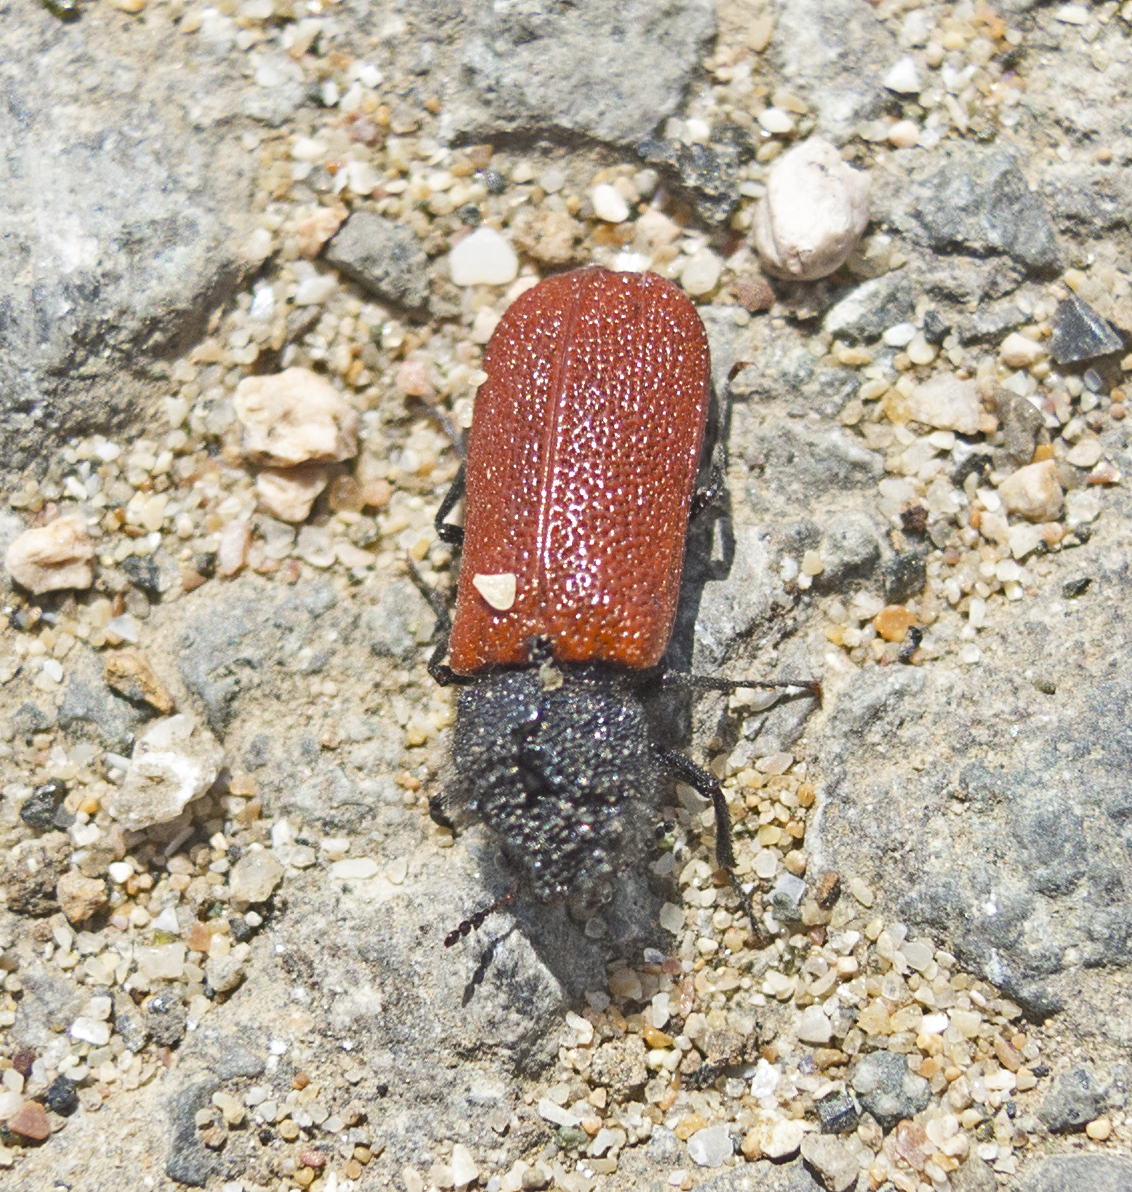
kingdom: Animalia
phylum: Arthropoda
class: Insecta
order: Coleoptera
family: Bostrichidae
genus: Bostrichus
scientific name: Bostrichus capucinus
